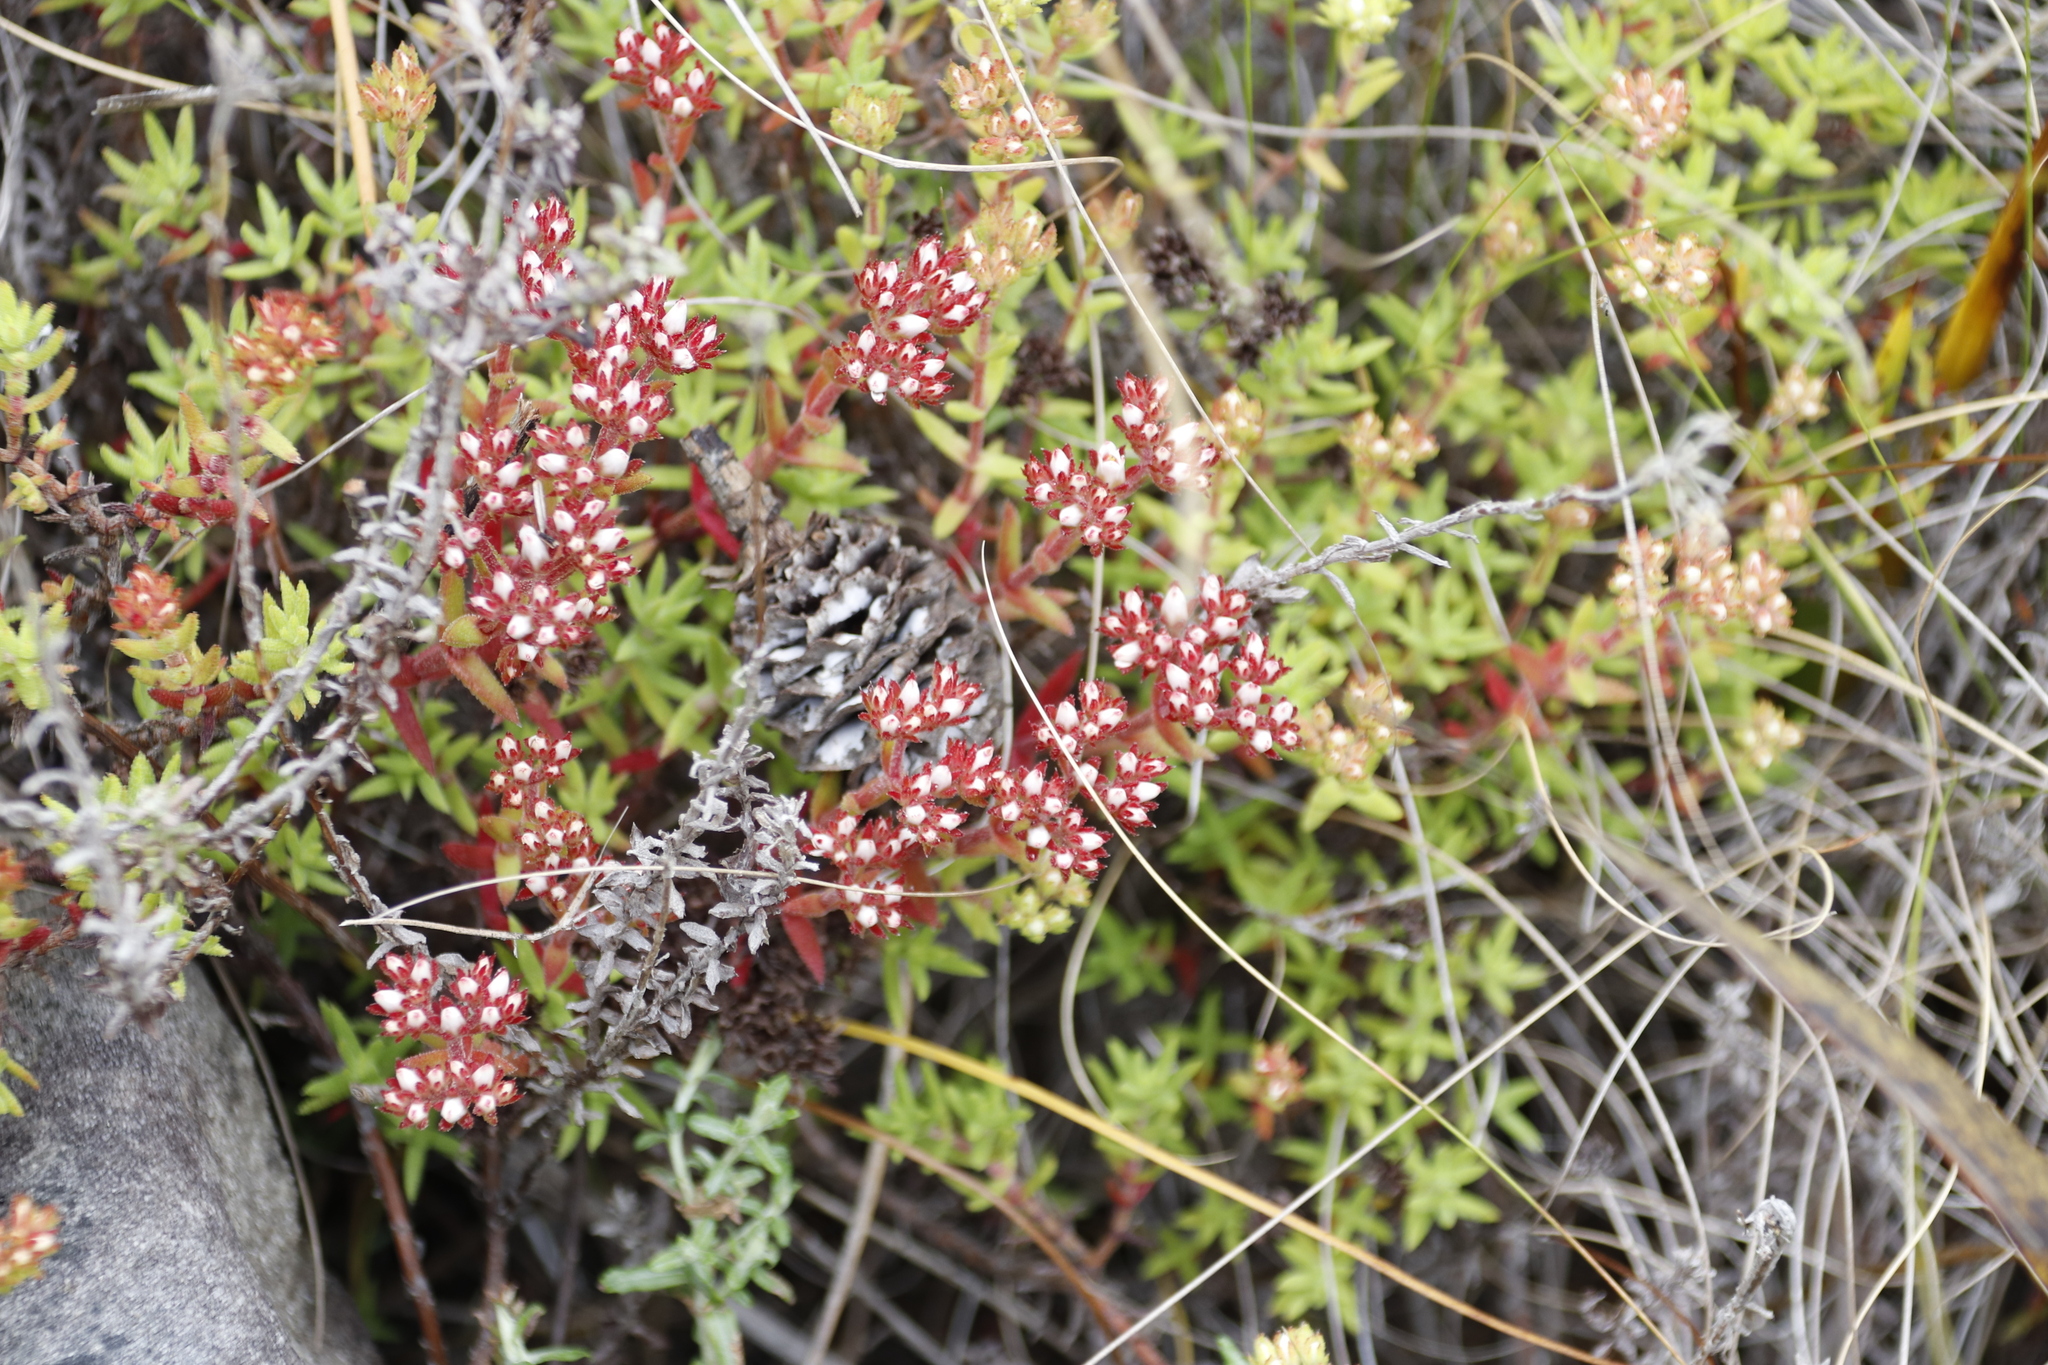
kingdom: Plantae
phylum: Tracheophyta
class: Magnoliopsida
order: Saxifragales
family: Crassulaceae
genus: Crassula
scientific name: Crassula fascicularis
